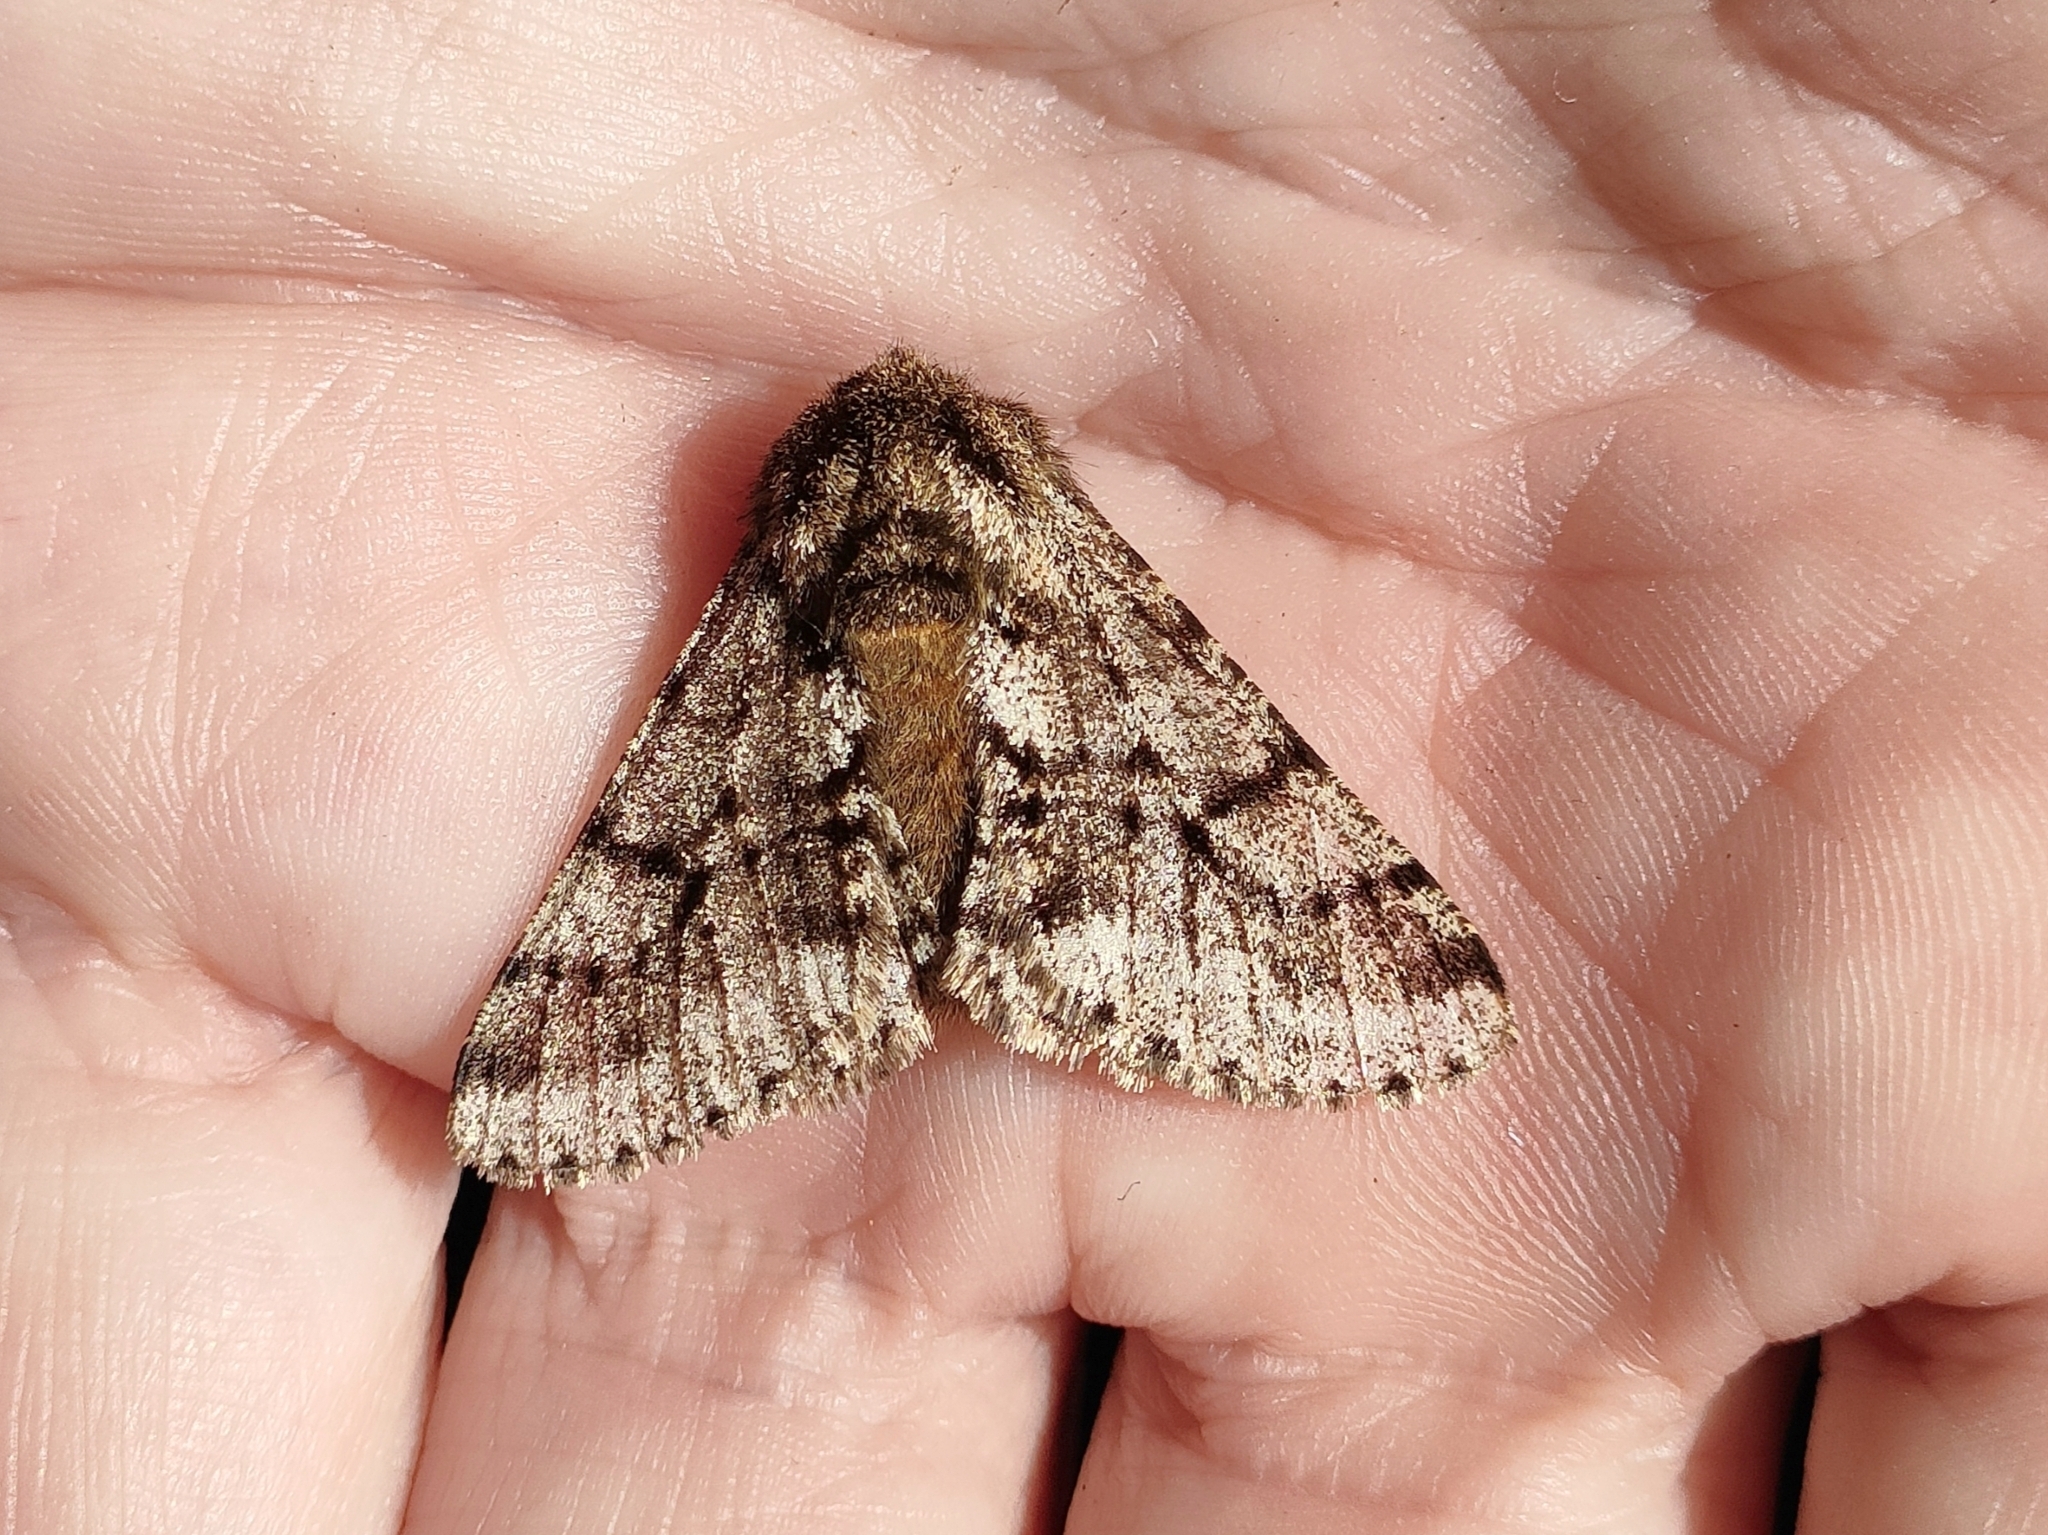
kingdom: Animalia
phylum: Arthropoda
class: Insecta
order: Lepidoptera
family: Geometridae
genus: Lycia
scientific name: Lycia hirtaria
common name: Brindled beauty
